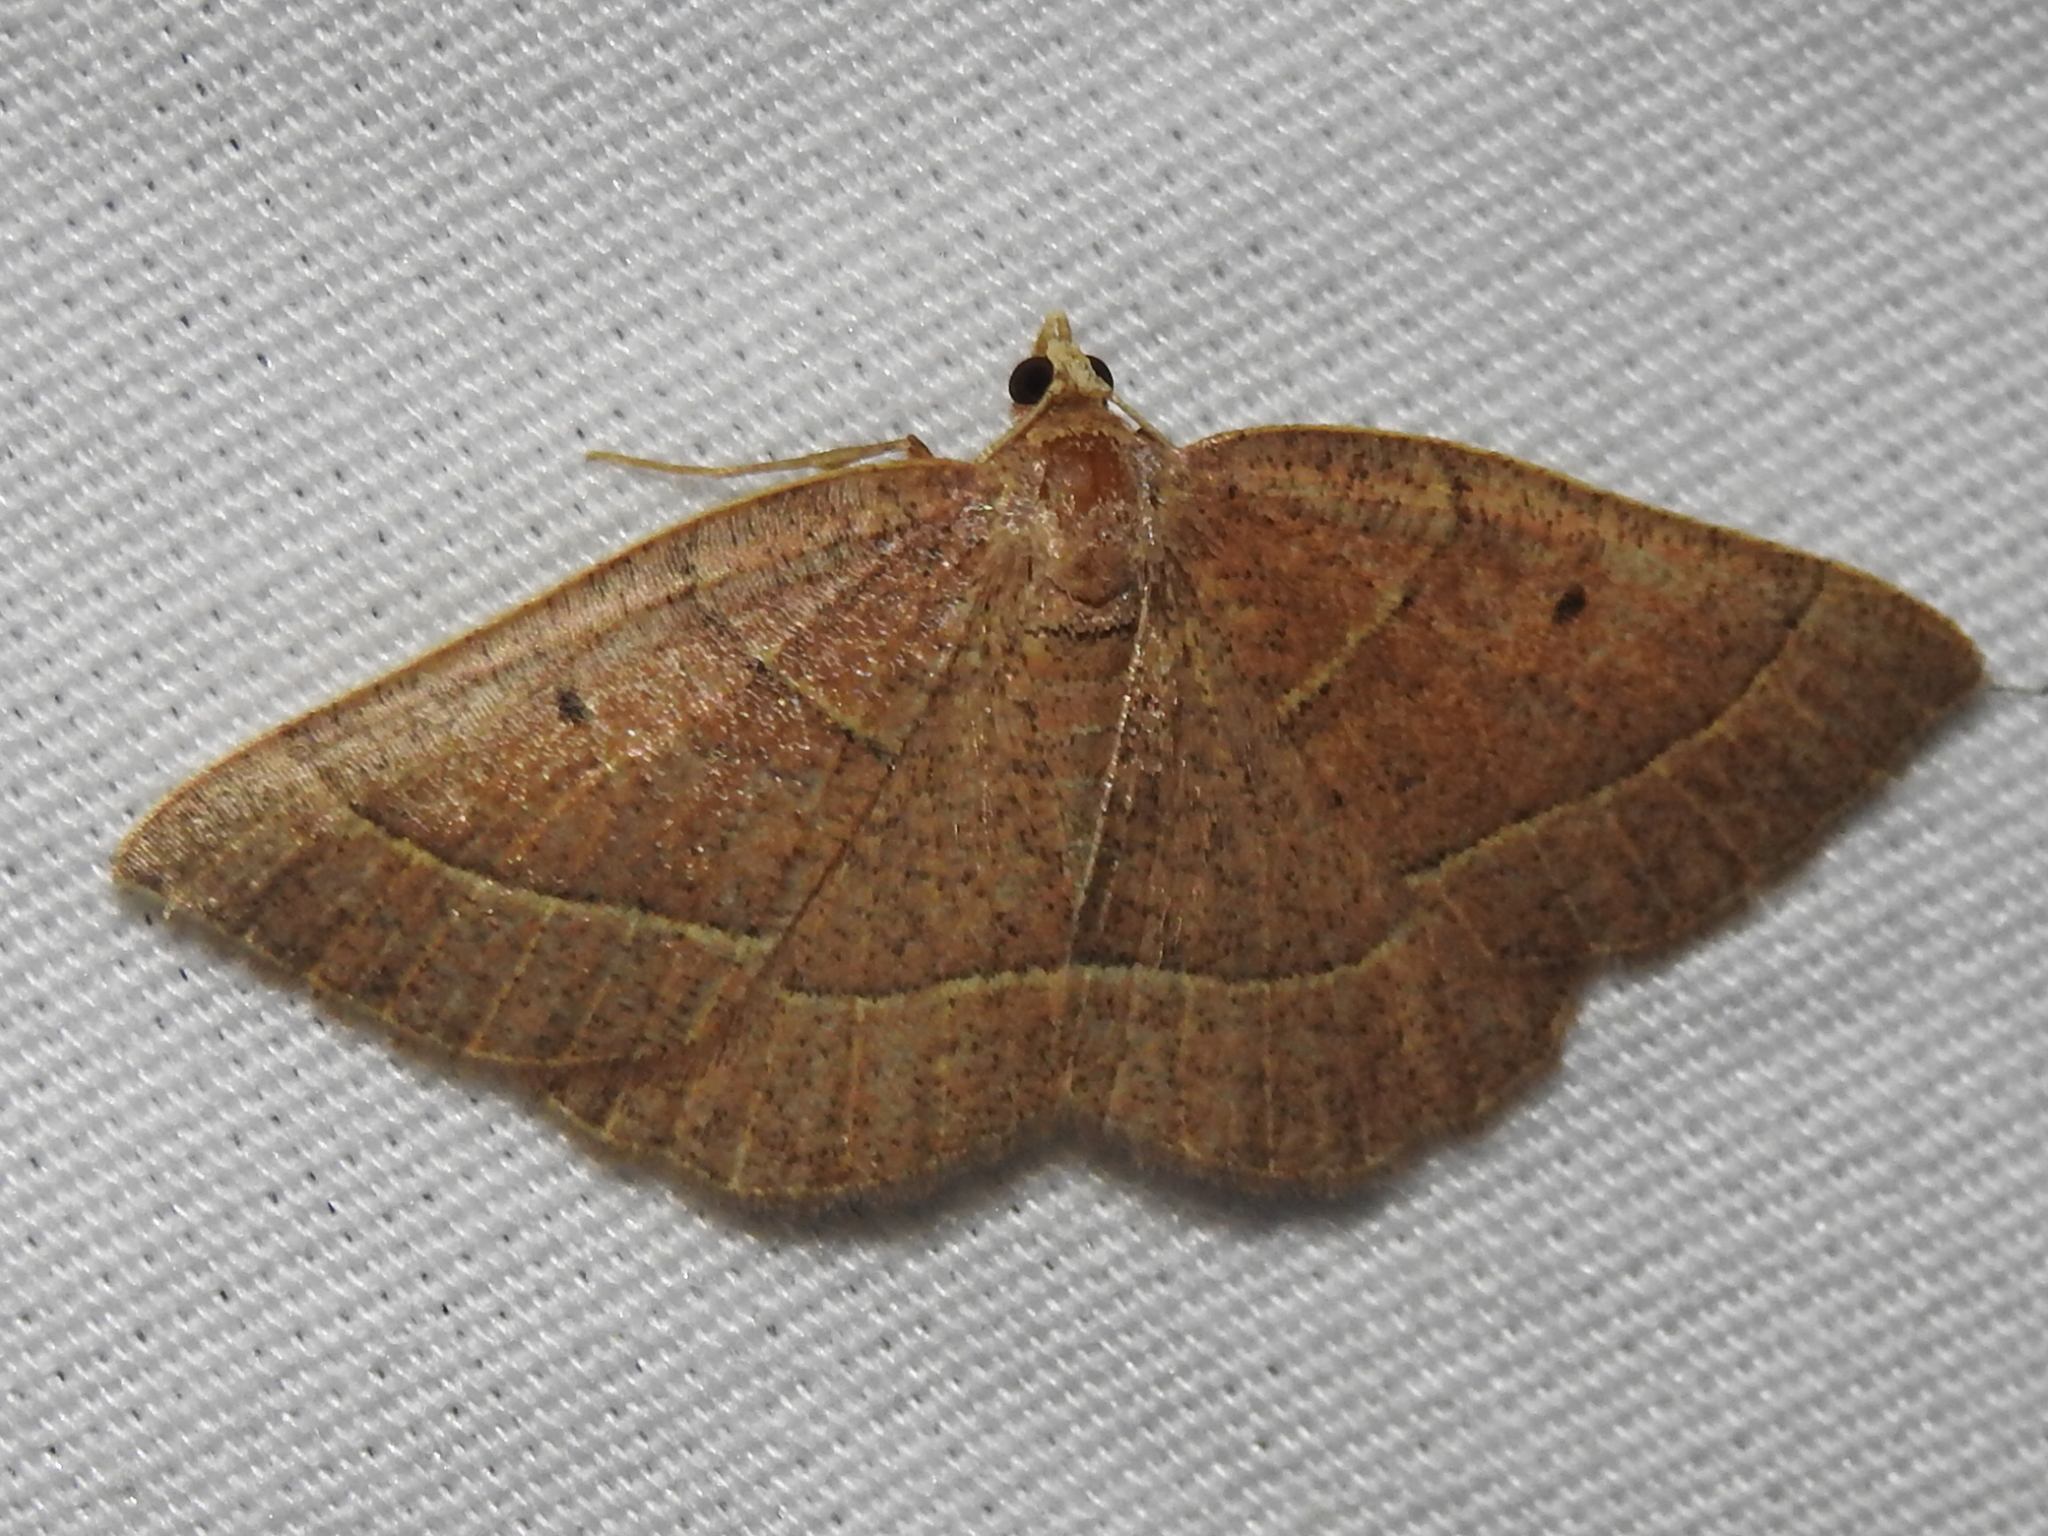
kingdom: Animalia
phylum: Arthropoda
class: Insecta
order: Lepidoptera
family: Geometridae
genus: Episemasia
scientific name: Episemasia cervinaria
